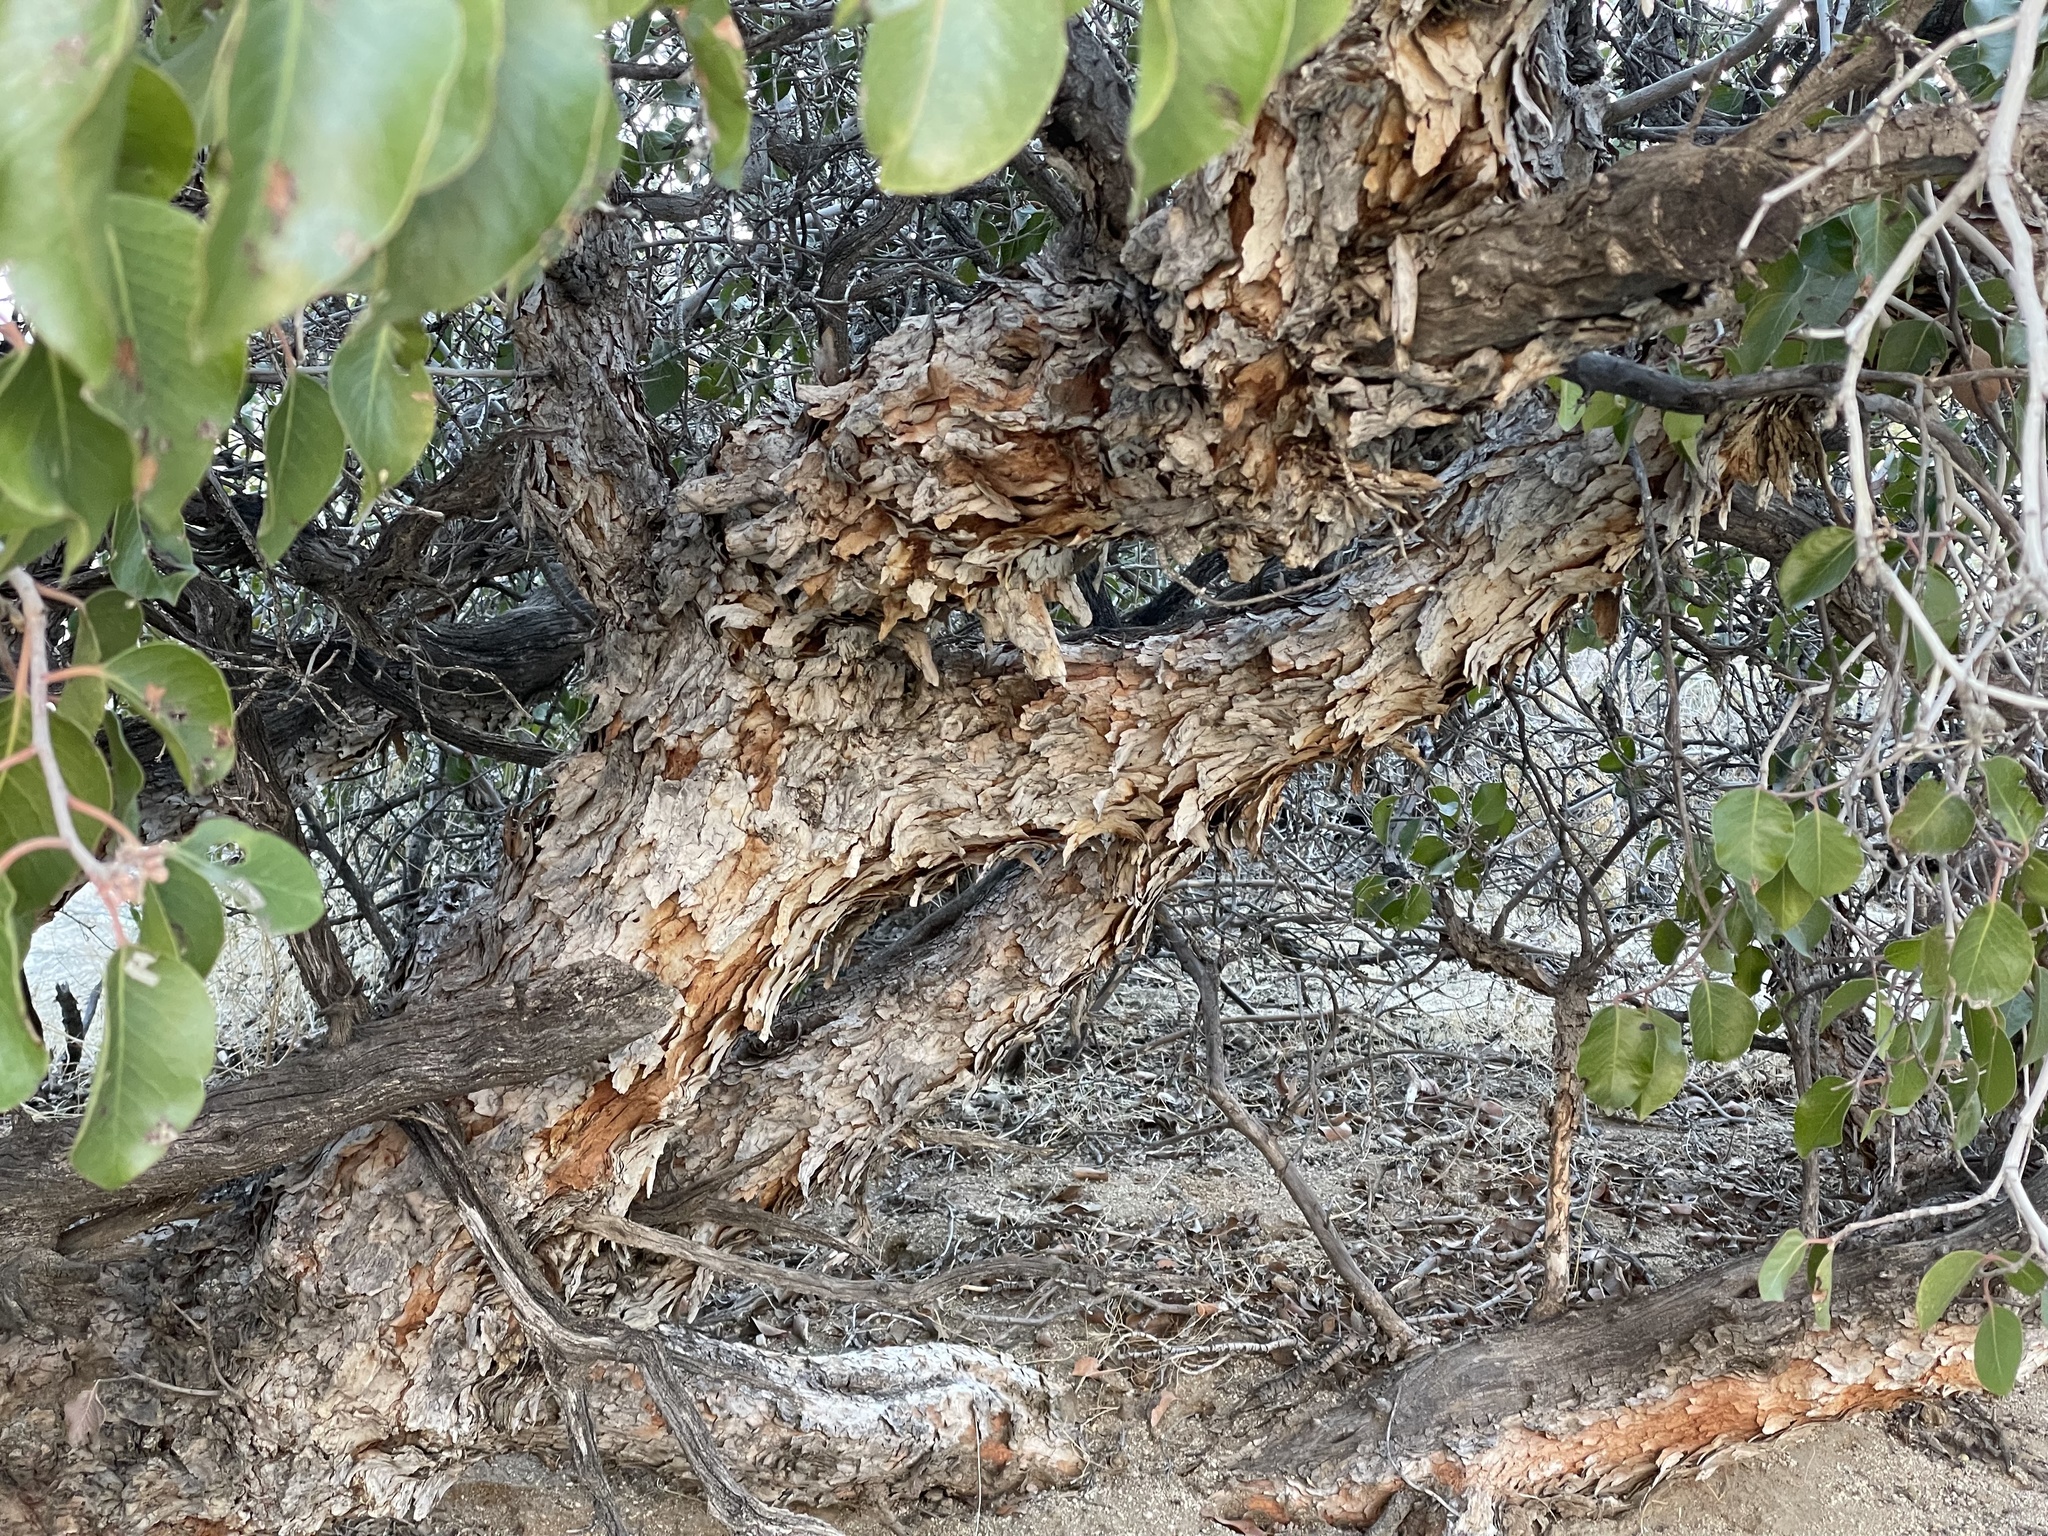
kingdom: Plantae
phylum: Tracheophyta
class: Magnoliopsida
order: Sapindales
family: Anacardiaceae
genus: Rhus
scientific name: Rhus ovata
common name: Sugar sumac
